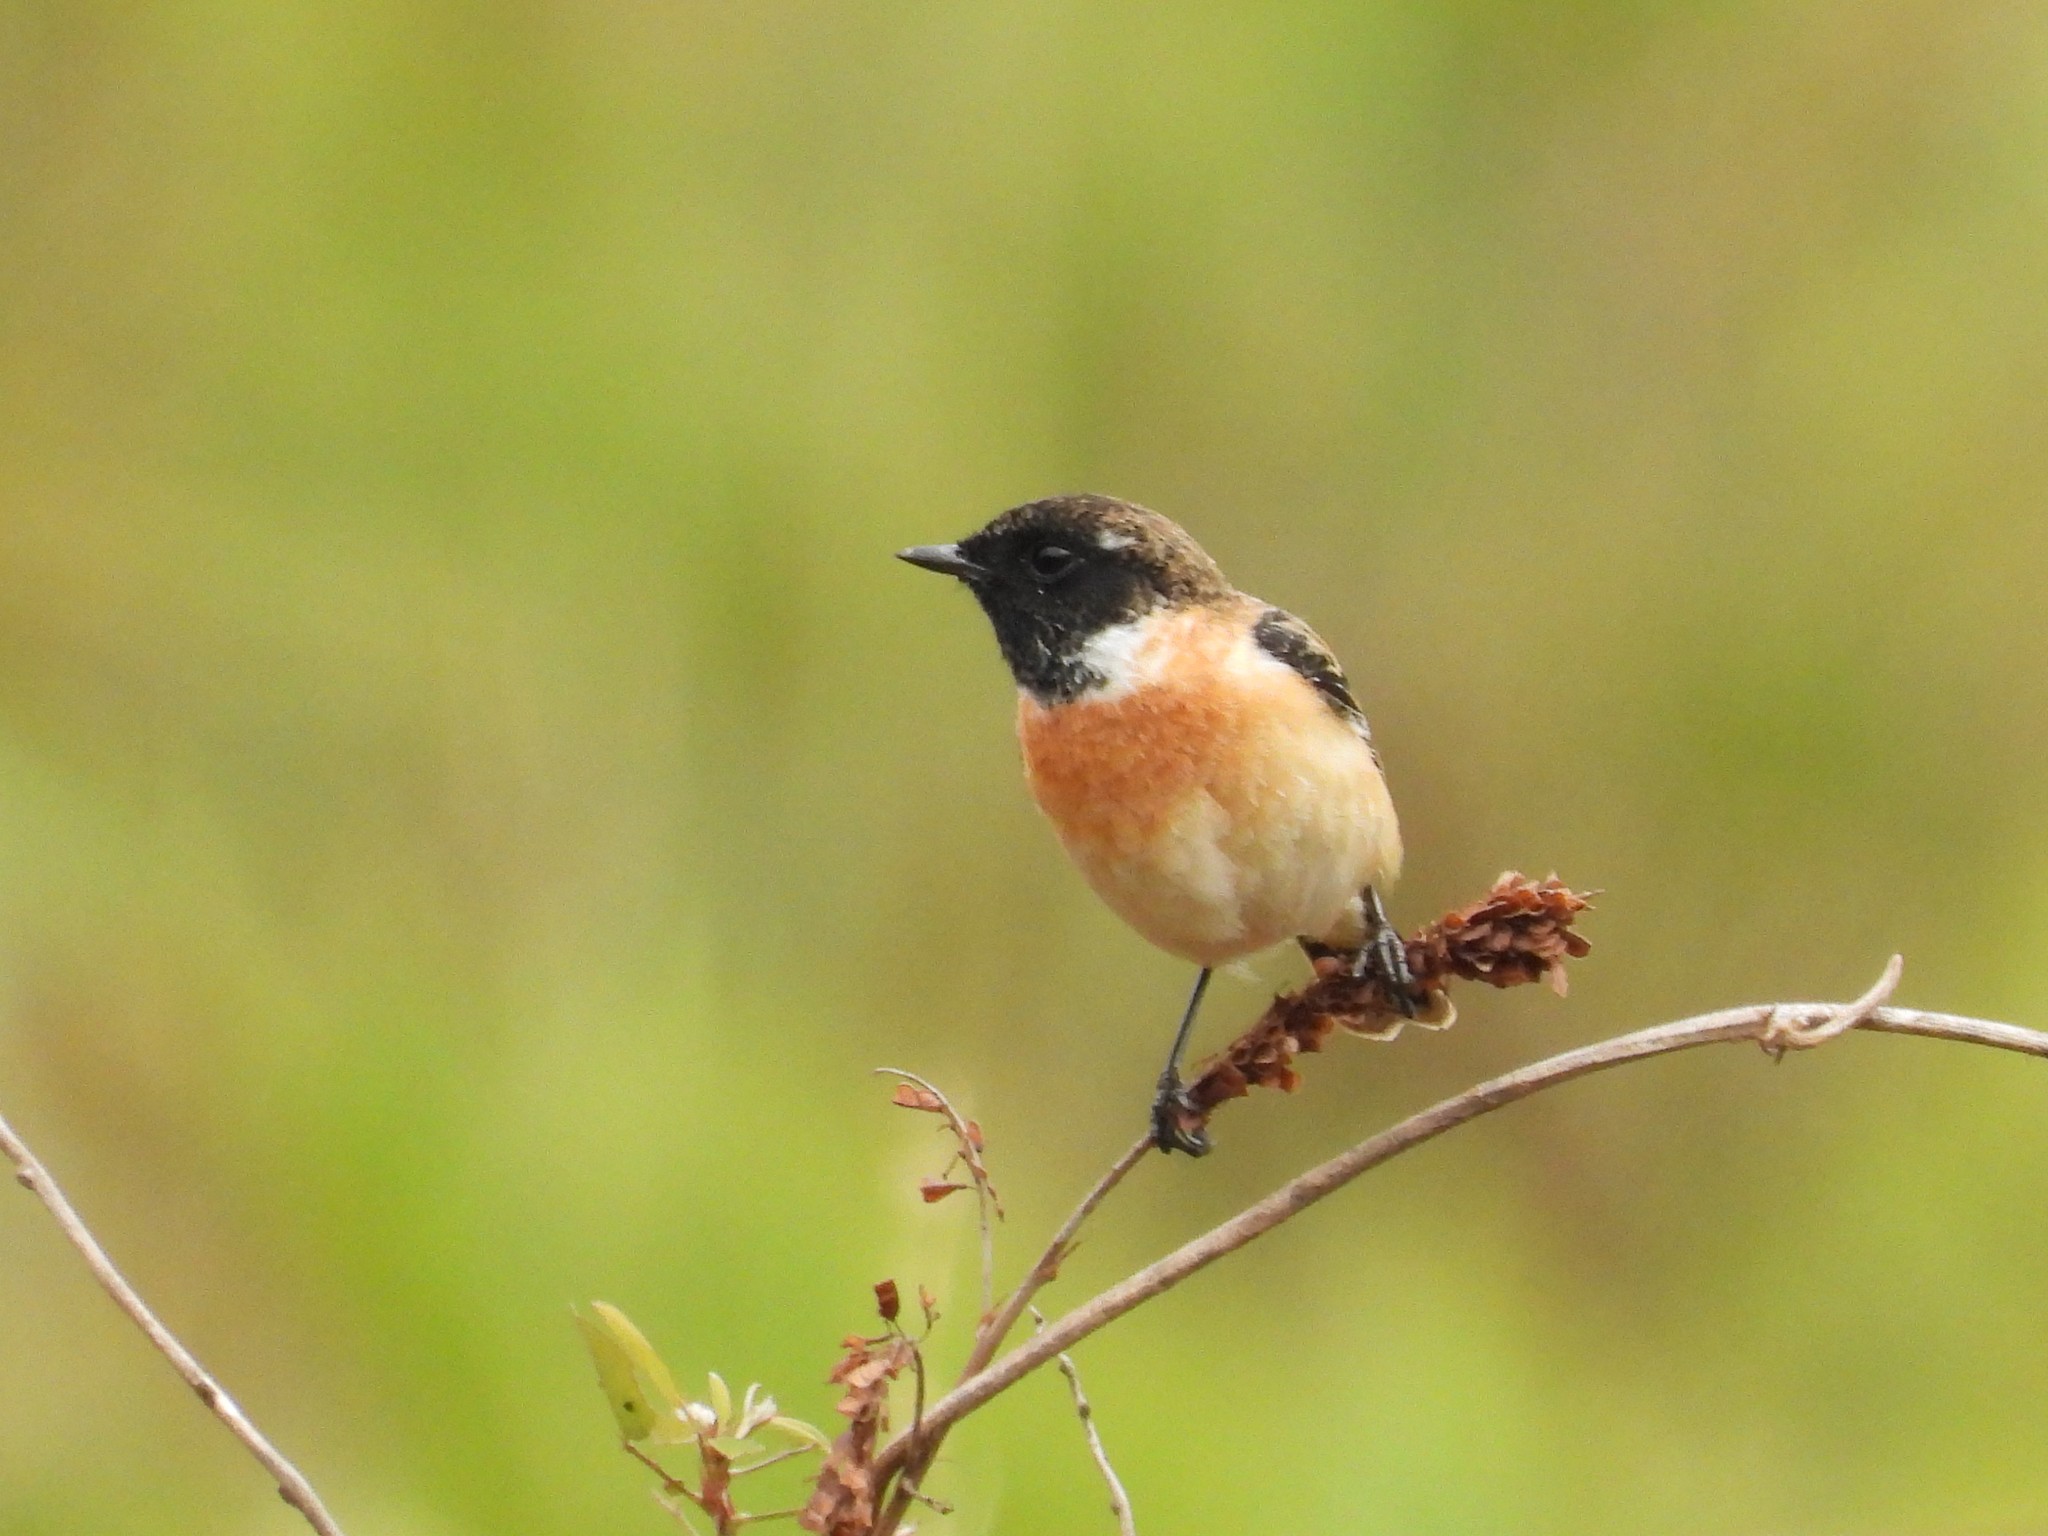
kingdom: Animalia
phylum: Chordata
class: Aves
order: Passeriformes
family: Muscicapidae
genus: Saxicola
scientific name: Saxicola stejnegeri
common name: Stejneger's stonechat
